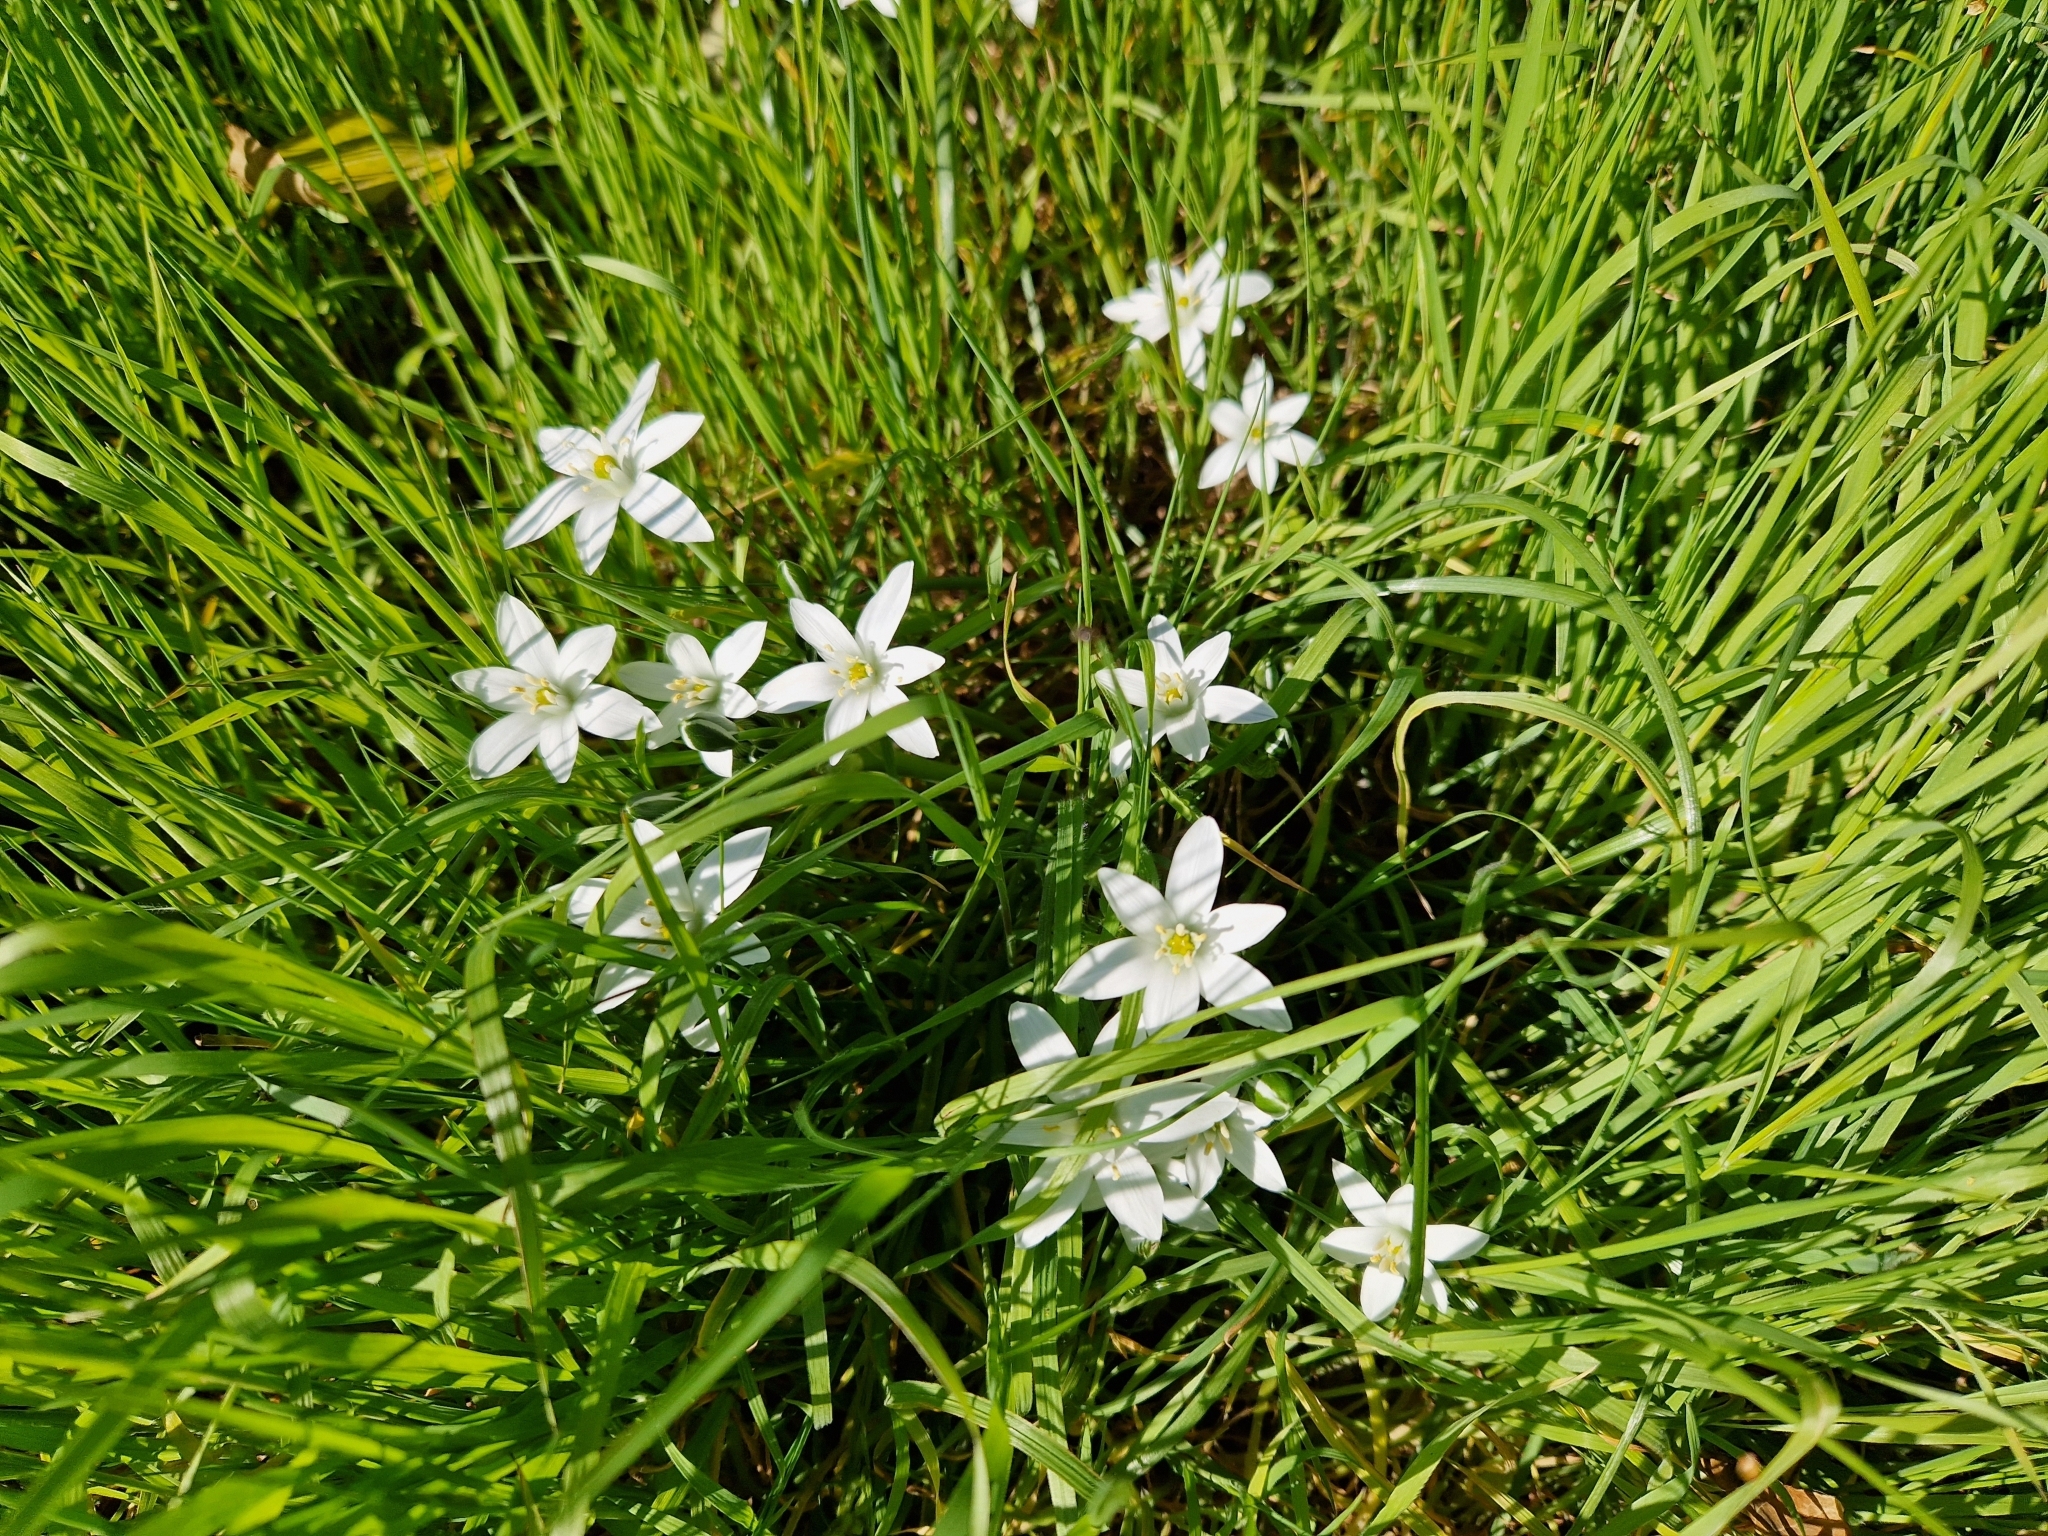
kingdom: Plantae
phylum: Tracheophyta
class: Liliopsida
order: Asparagales
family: Asparagaceae
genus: Ornithogalum
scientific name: Ornithogalum umbellatum
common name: Garden star-of-bethlehem
